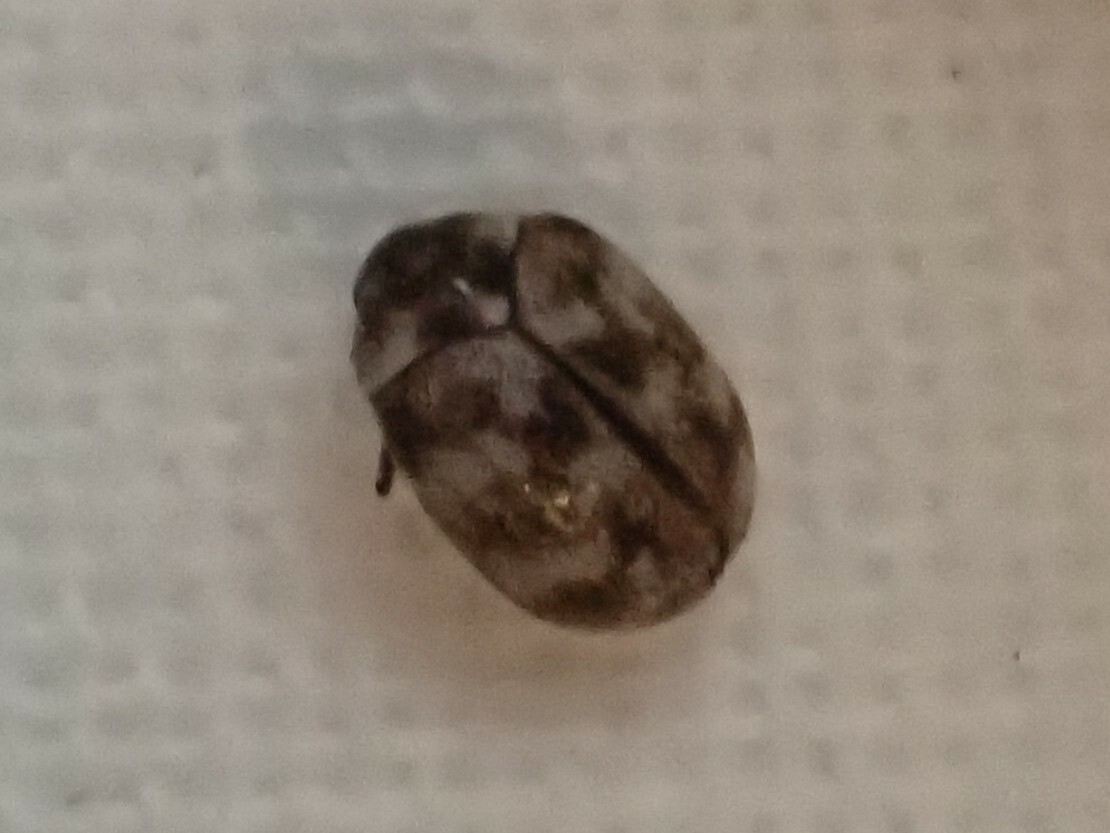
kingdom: Animalia
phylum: Arthropoda
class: Insecta
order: Coleoptera
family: Dermestidae
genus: Anthrenus
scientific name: Anthrenus verbasci
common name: Varied carpet beetle
